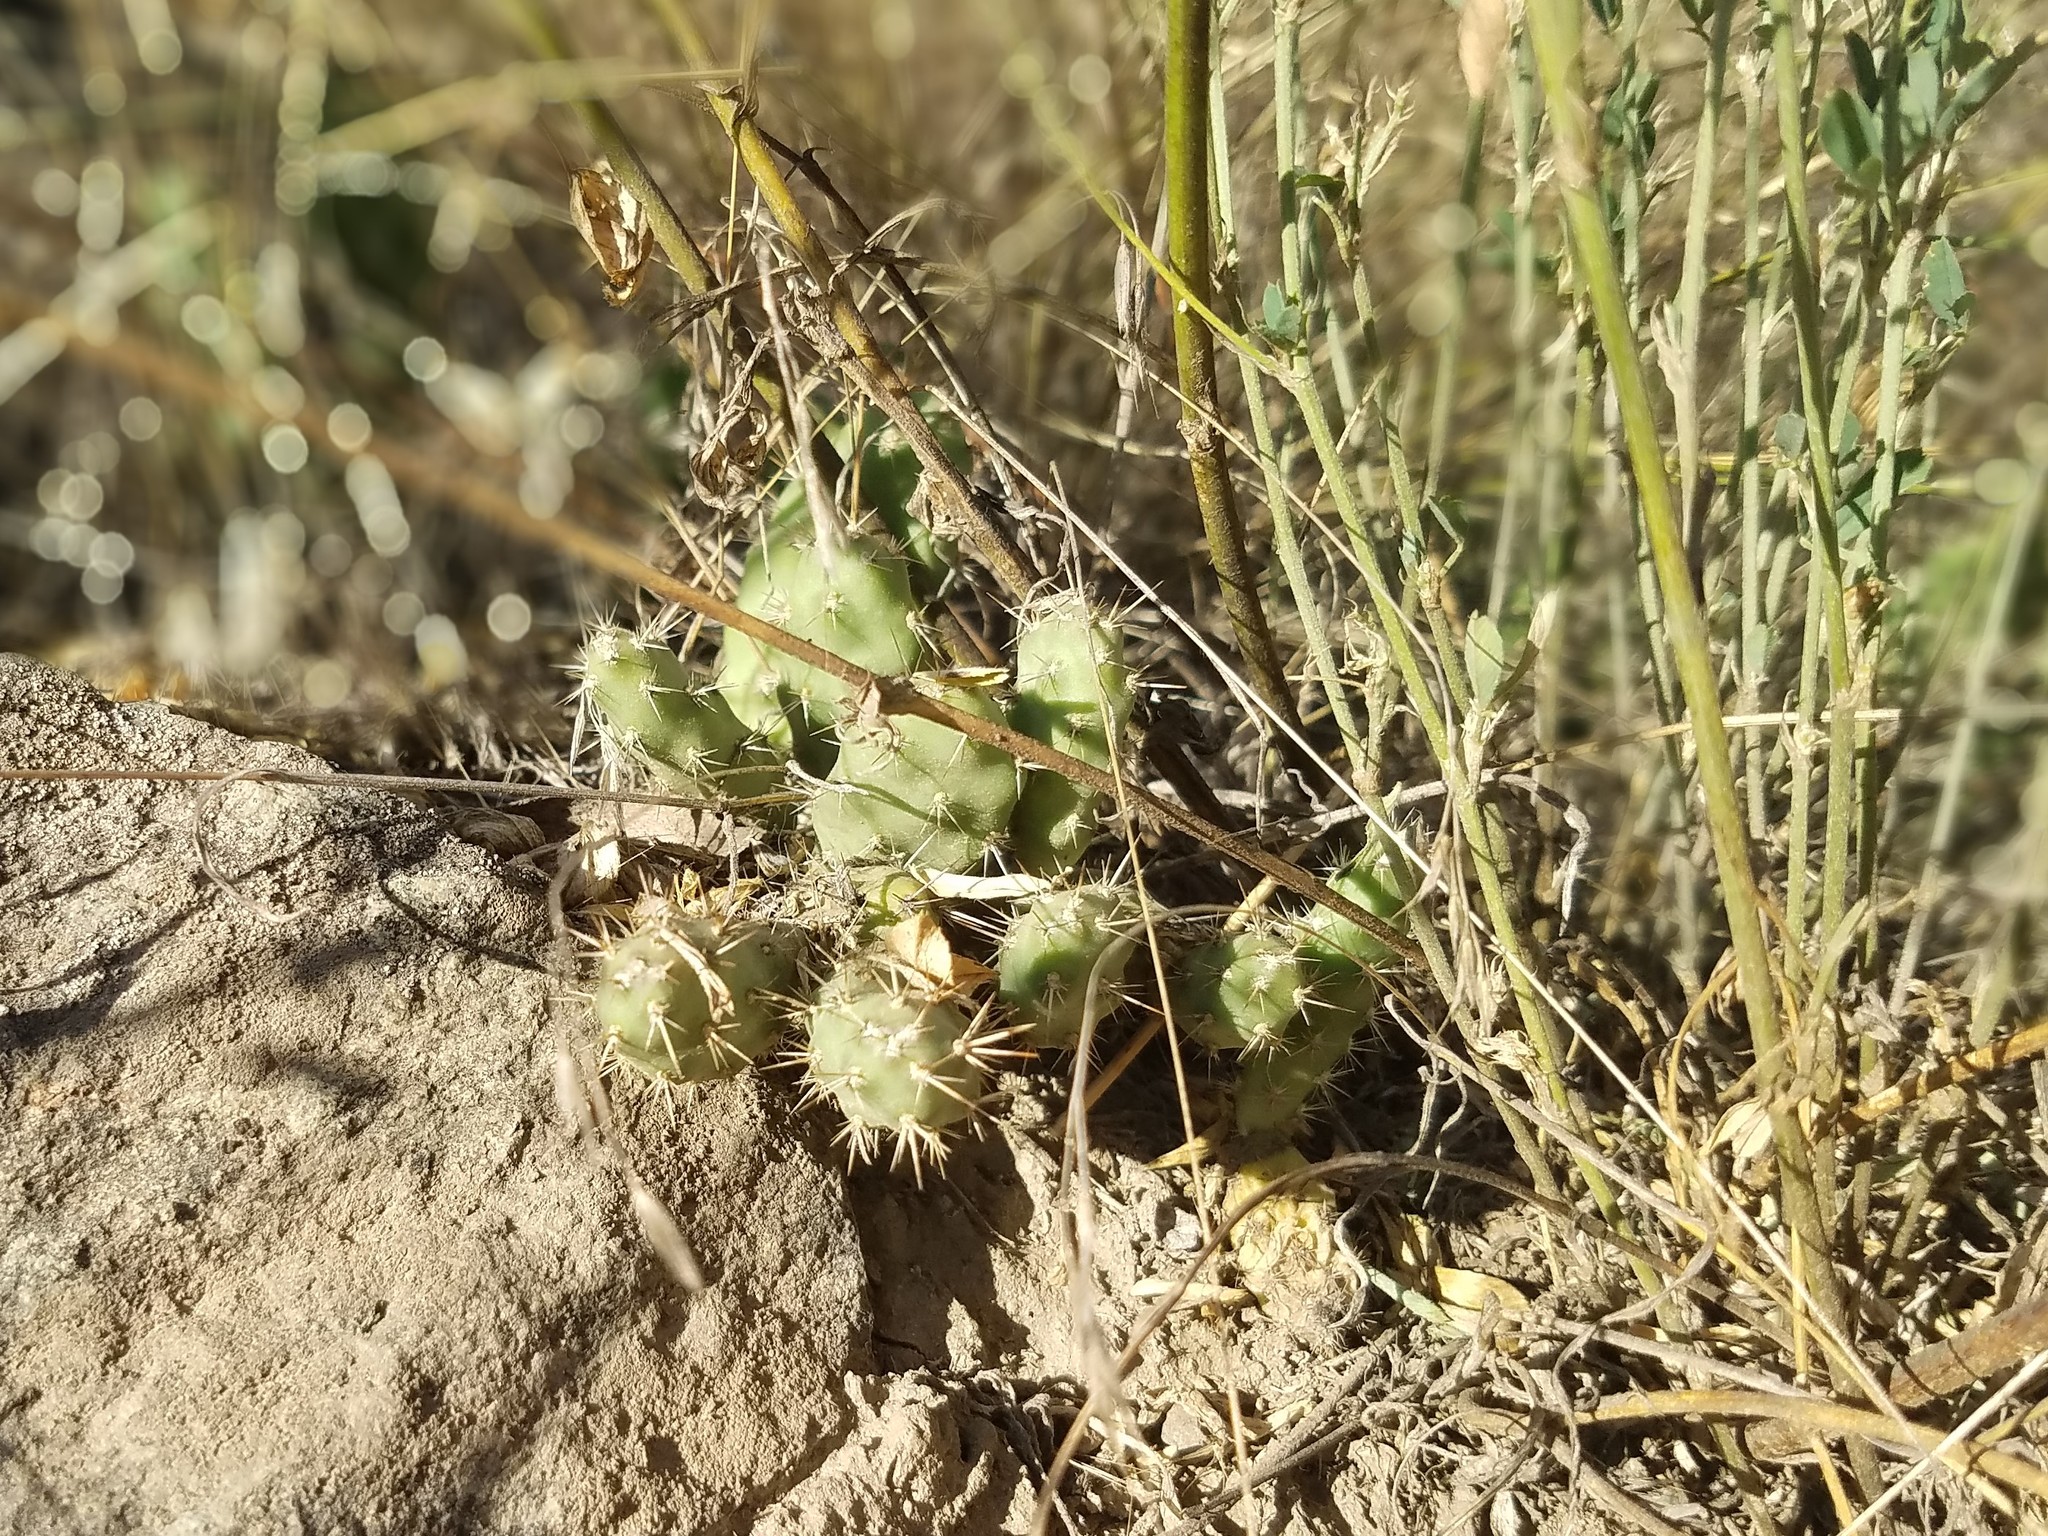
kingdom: Plantae
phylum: Tracheophyta
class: Magnoliopsida
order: Caryophyllales
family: Cactaceae
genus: Opuntia
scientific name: Opuntia fragilis
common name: Brittle cactus
